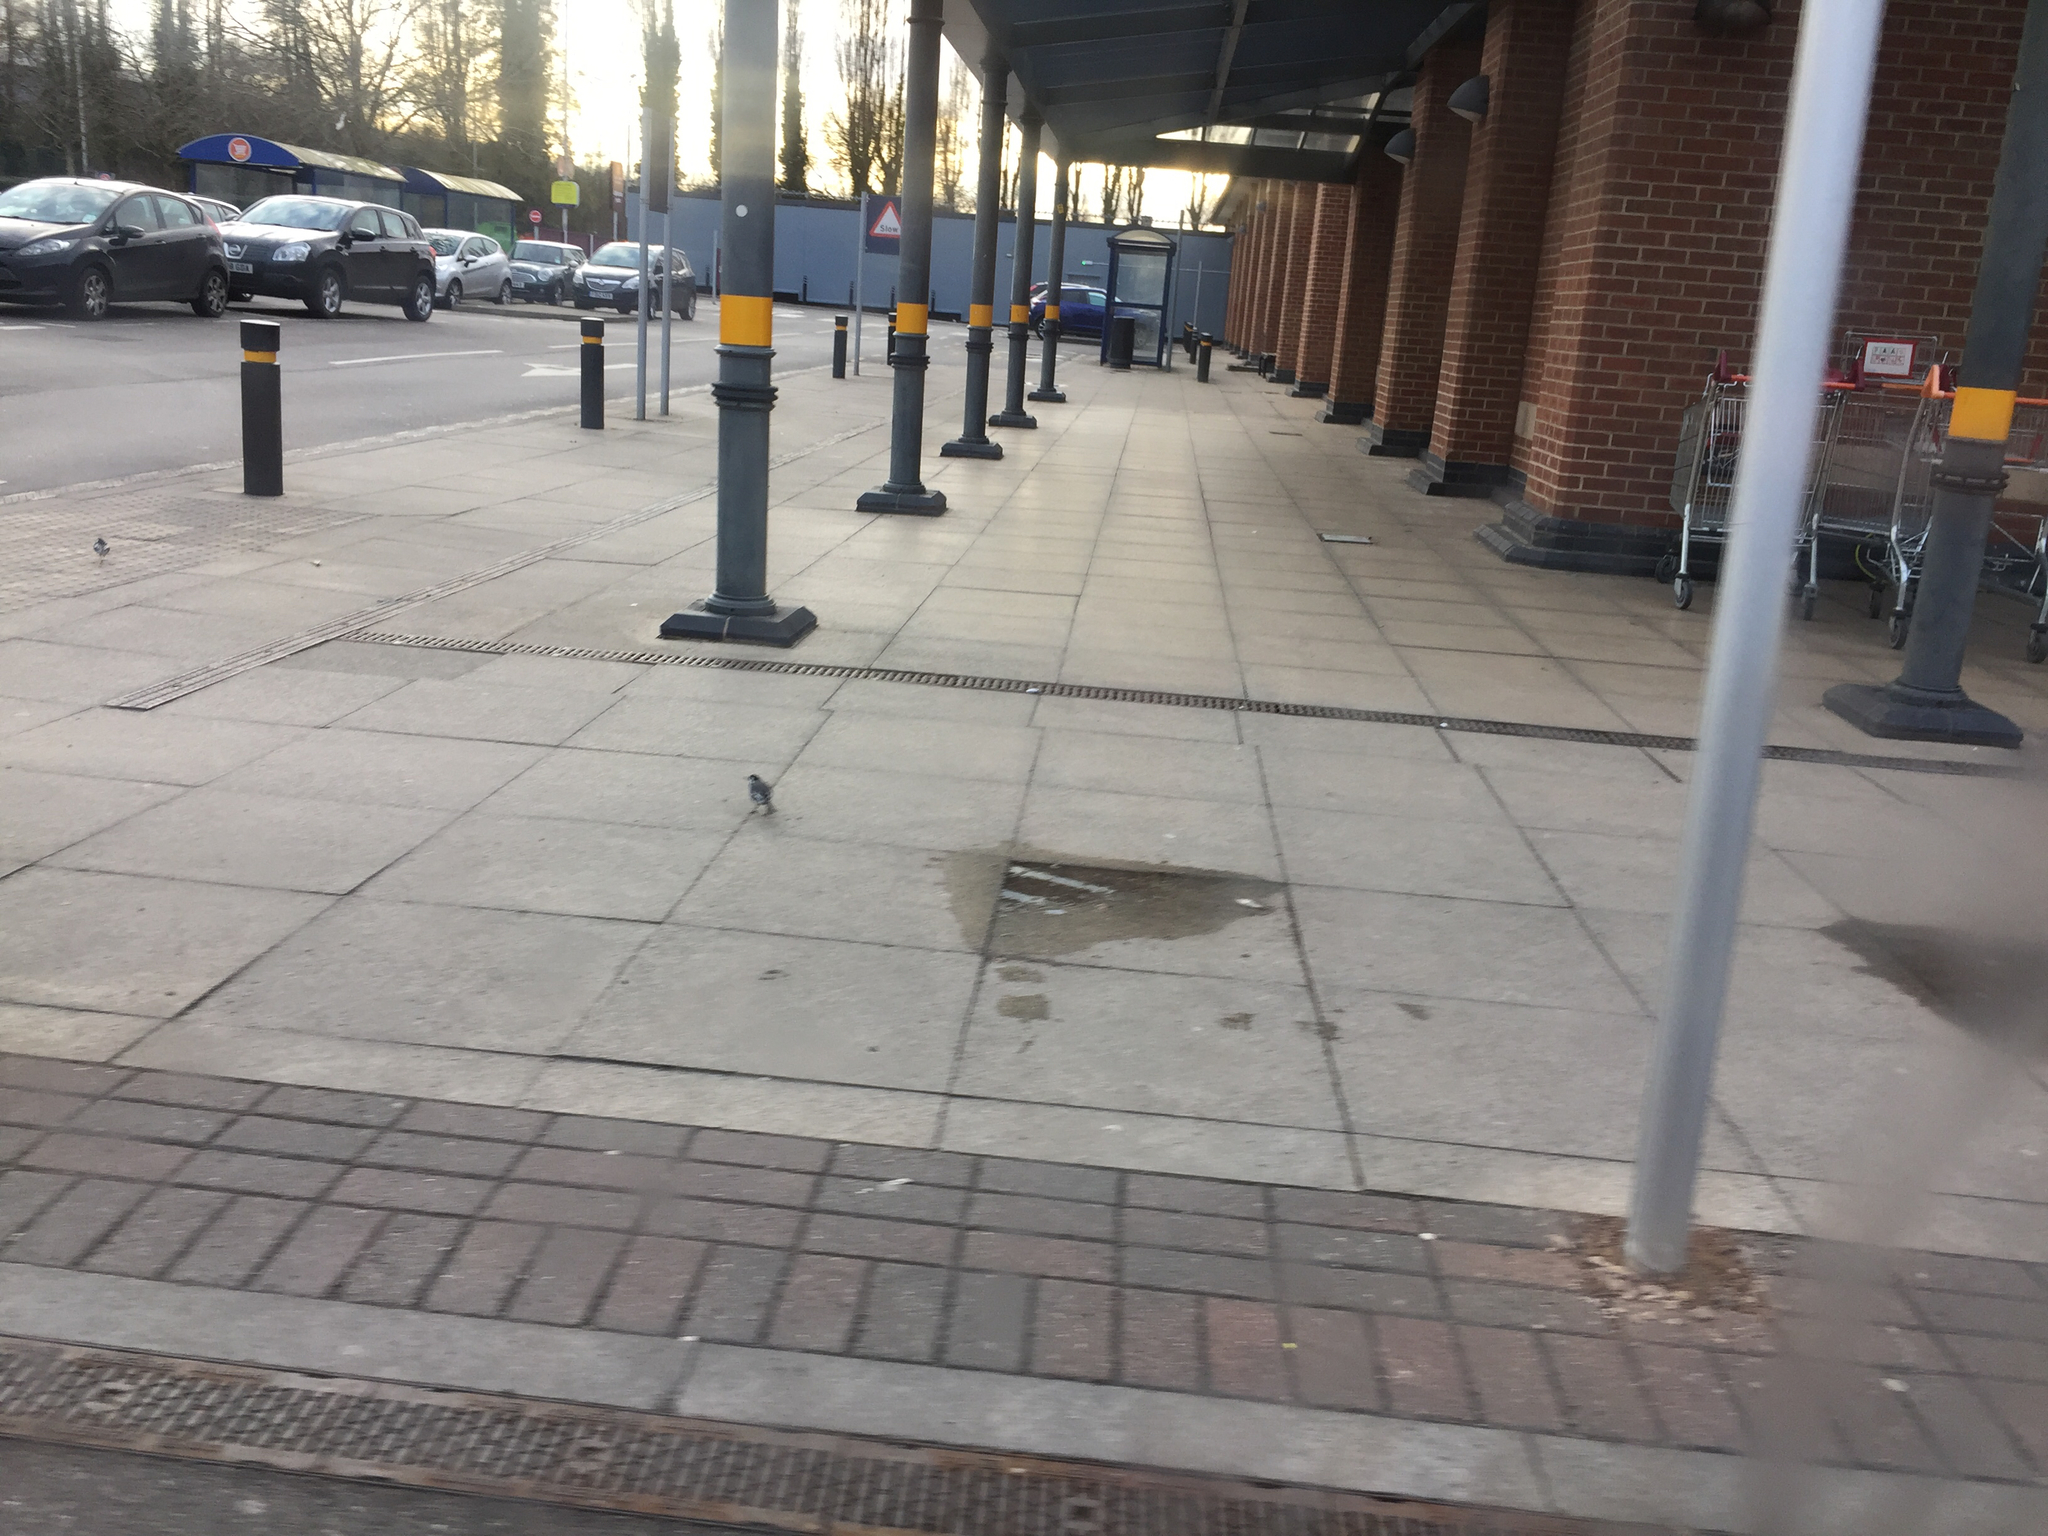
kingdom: Animalia
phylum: Chordata
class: Aves
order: Passeriformes
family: Motacillidae
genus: Motacilla
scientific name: Motacilla alba
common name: White wagtail
